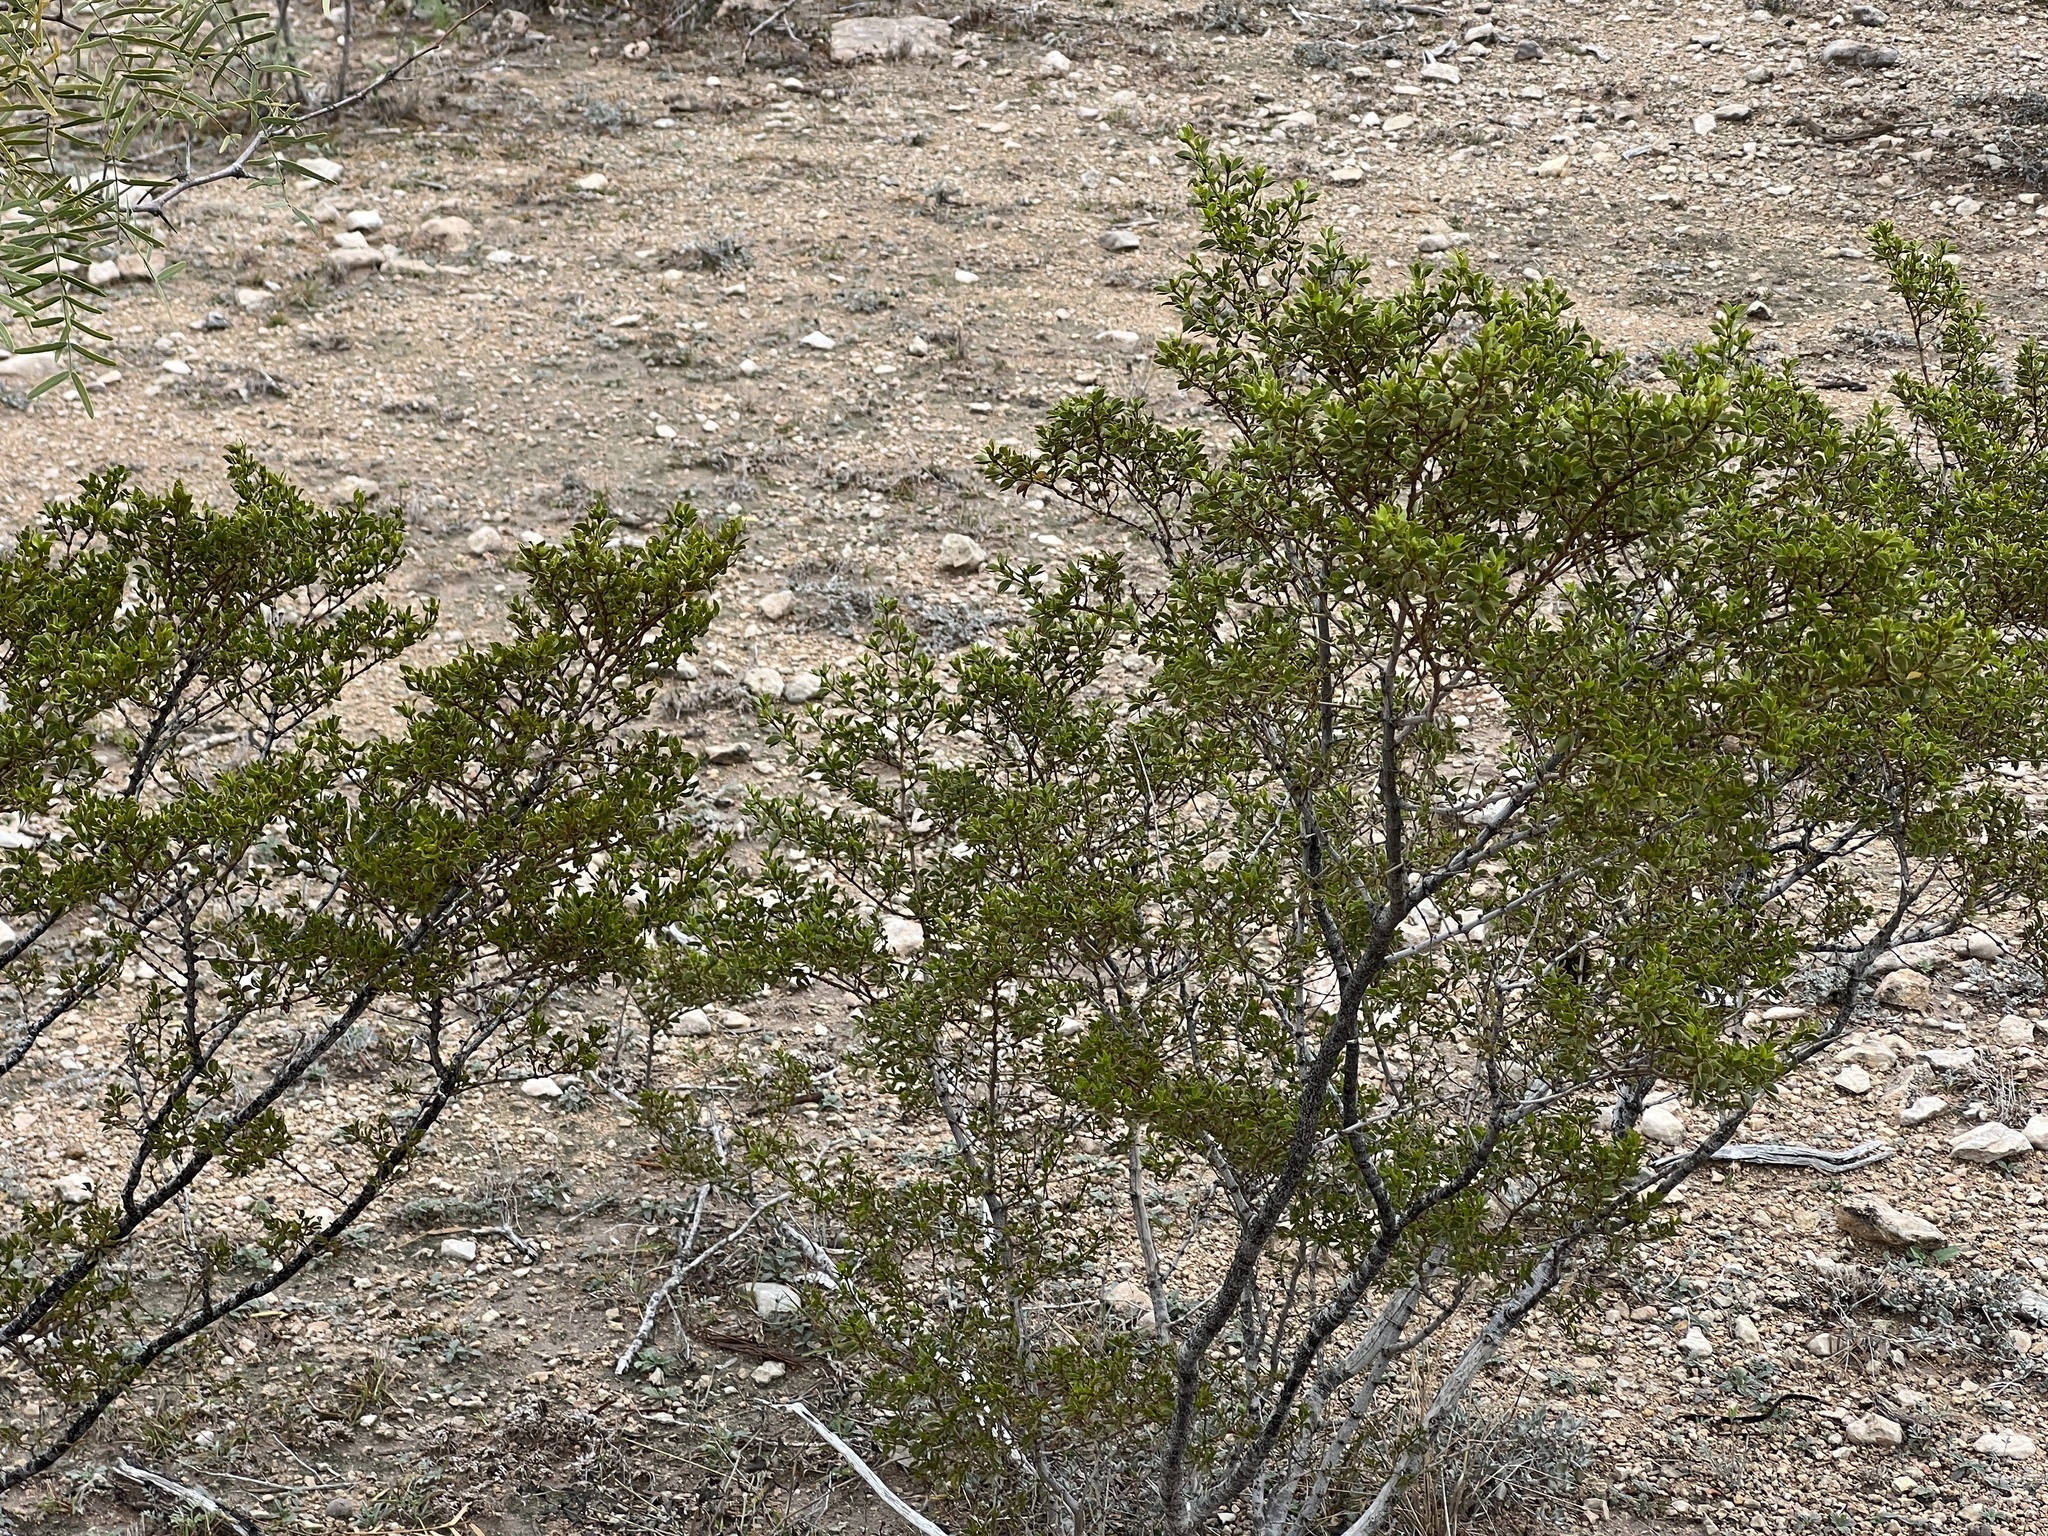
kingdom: Plantae
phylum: Tracheophyta
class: Magnoliopsida
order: Zygophyllales
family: Zygophyllaceae
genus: Larrea
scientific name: Larrea tridentata
